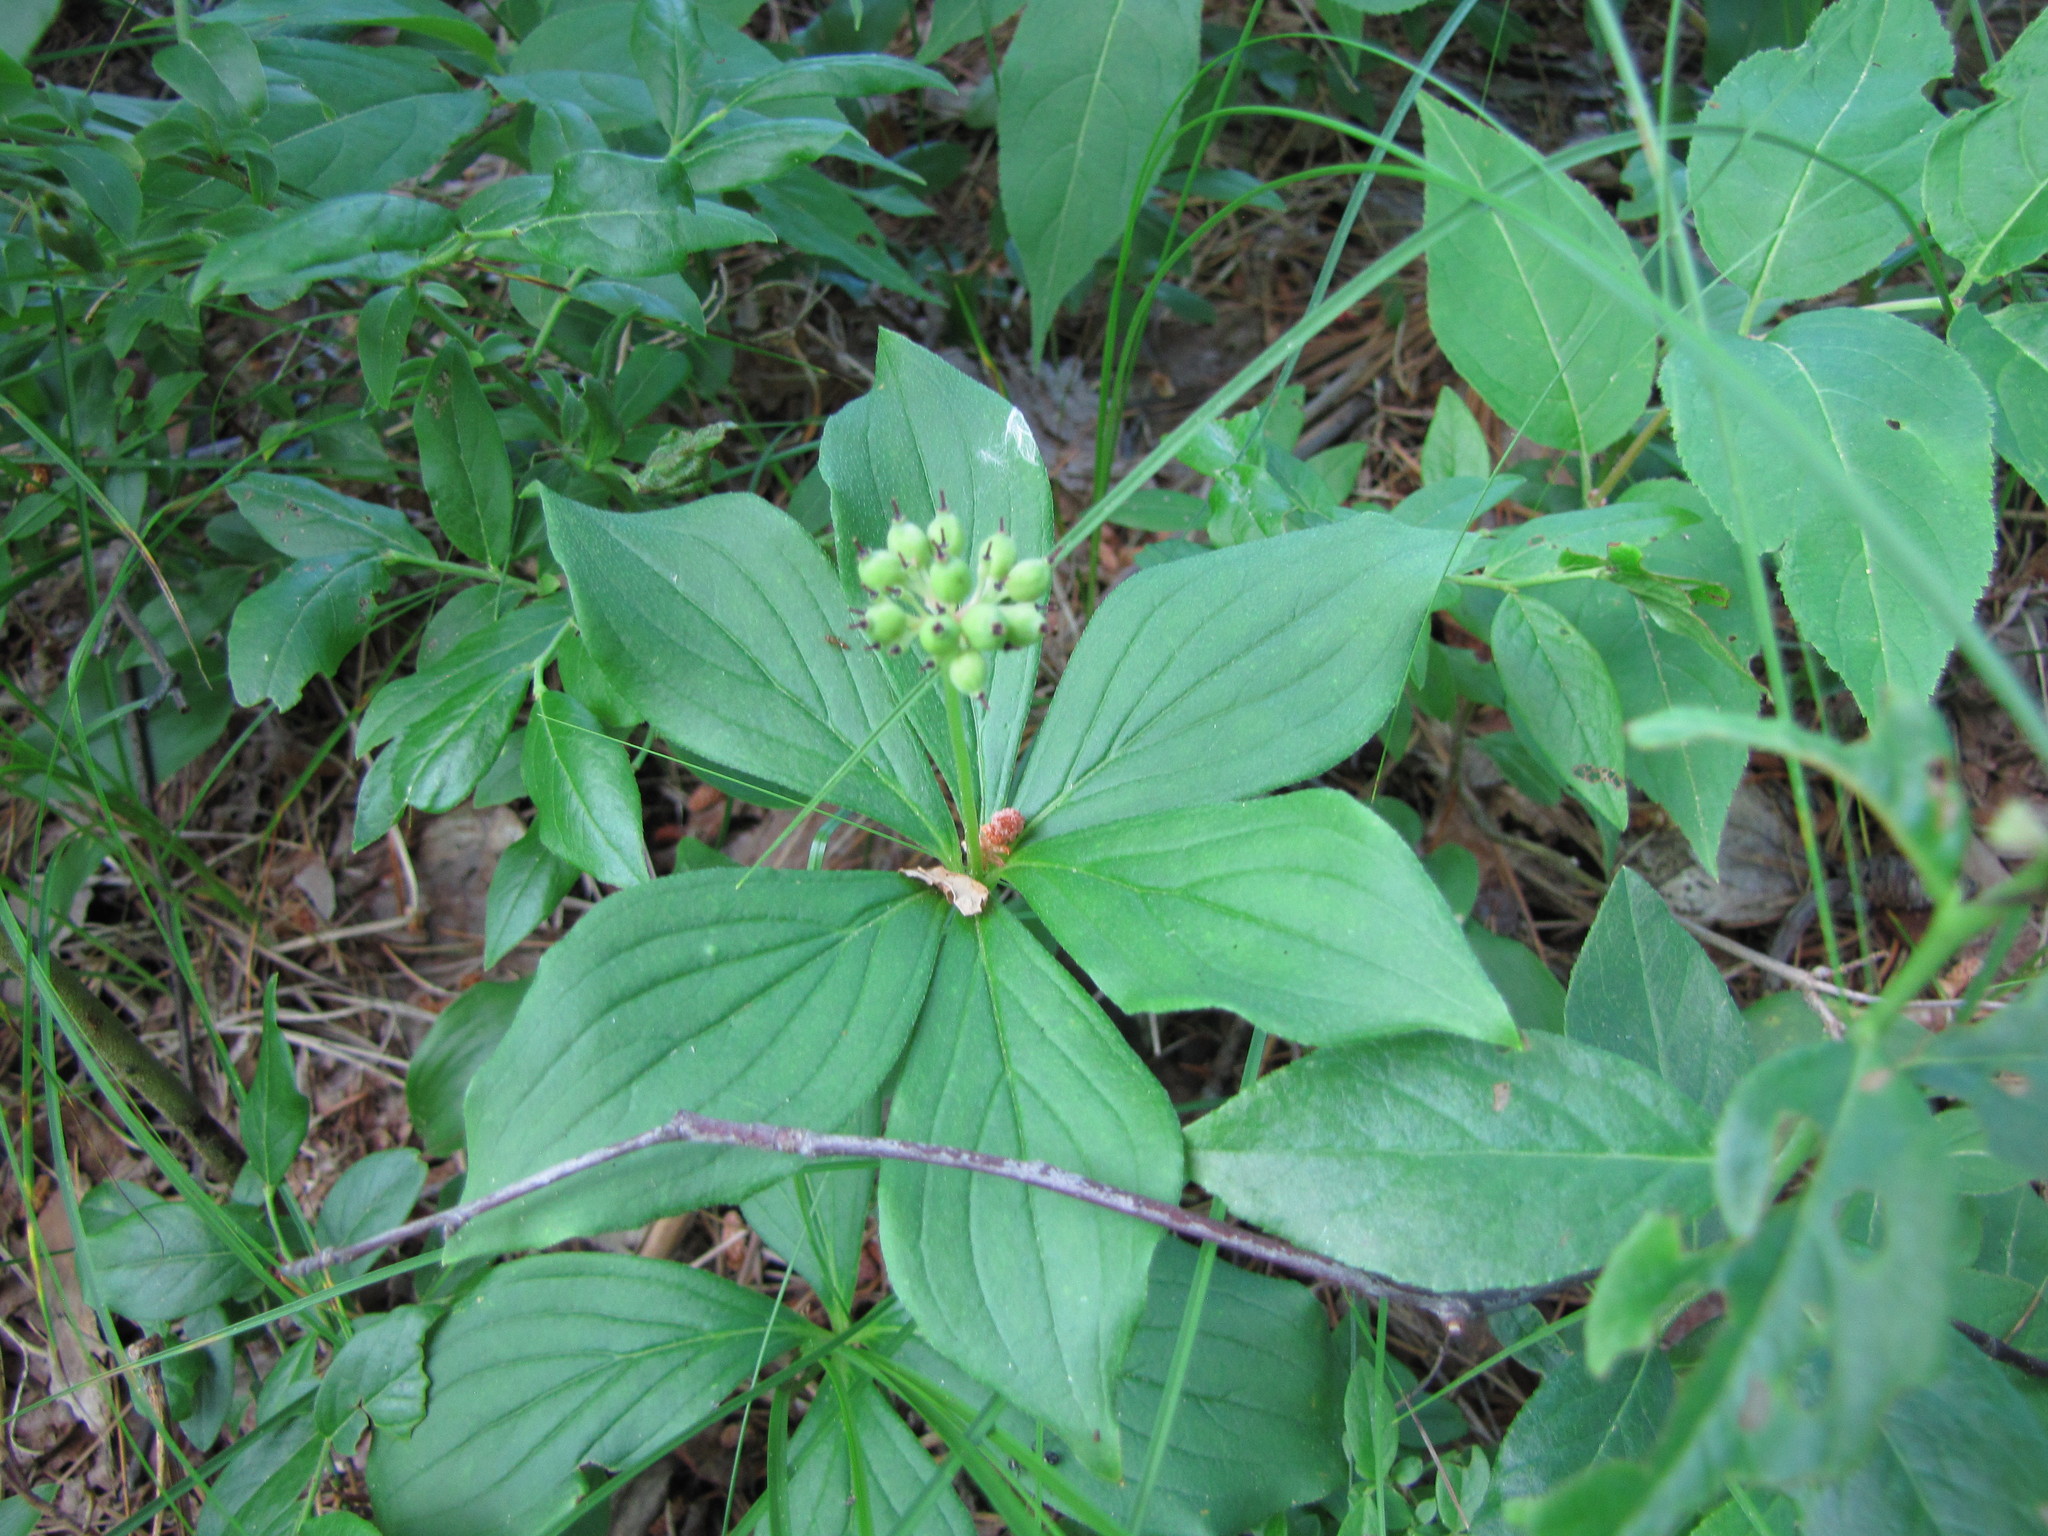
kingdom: Plantae
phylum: Tracheophyta
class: Magnoliopsida
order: Cornales
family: Cornaceae
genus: Cornus
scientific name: Cornus canadensis
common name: Creeping dogwood
